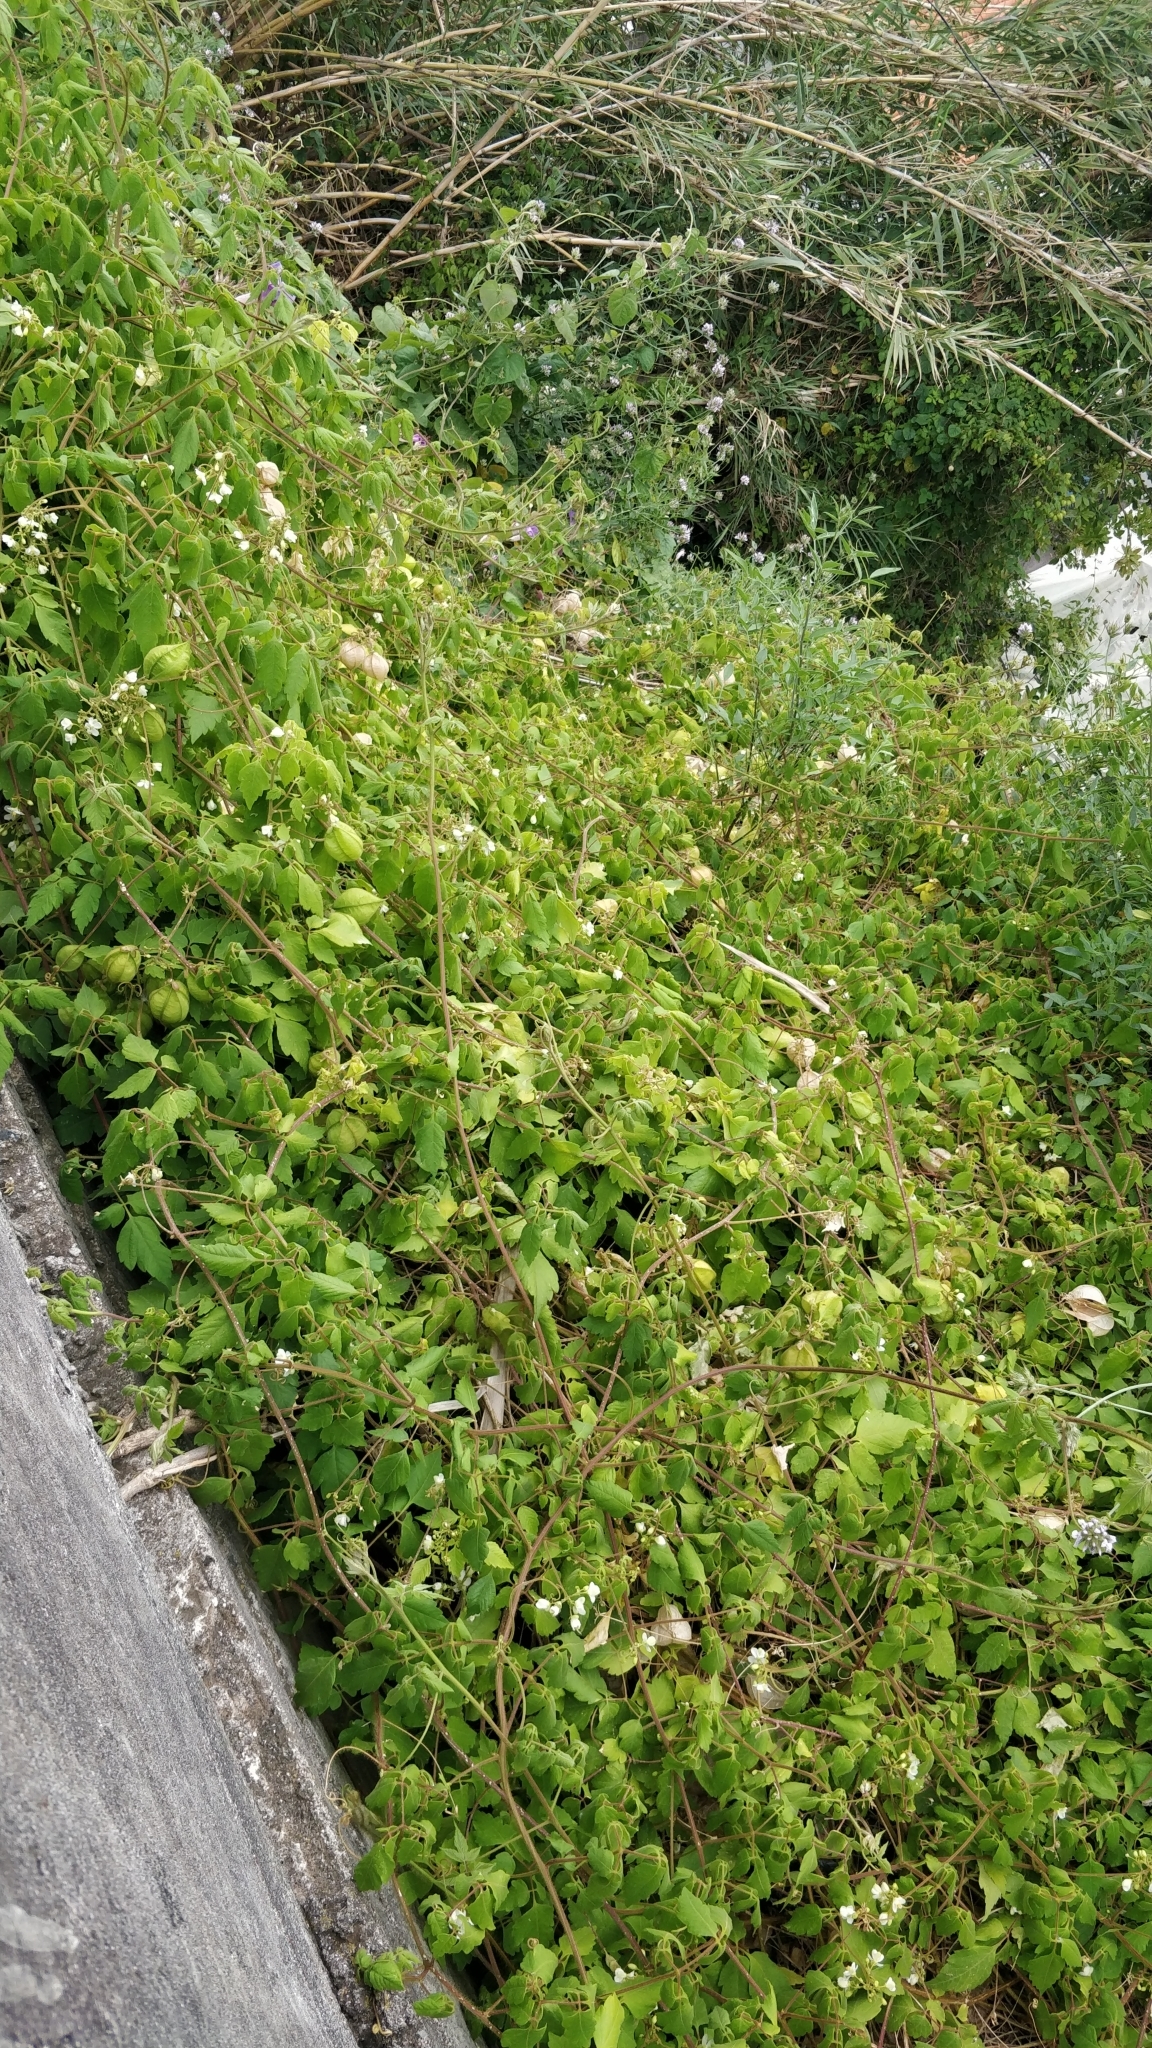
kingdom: Plantae
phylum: Tracheophyta
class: Magnoliopsida
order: Sapindales
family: Sapindaceae
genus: Cardiospermum
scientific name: Cardiospermum grandiflorum
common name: Balloon vine
